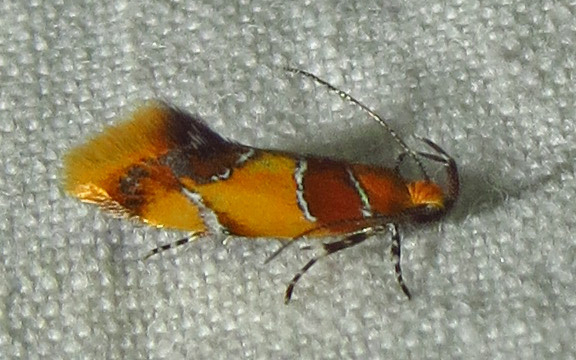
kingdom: Animalia
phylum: Arthropoda
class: Insecta
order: Lepidoptera
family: Oecophoridae
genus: Callima
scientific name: Callima argenticinctella
